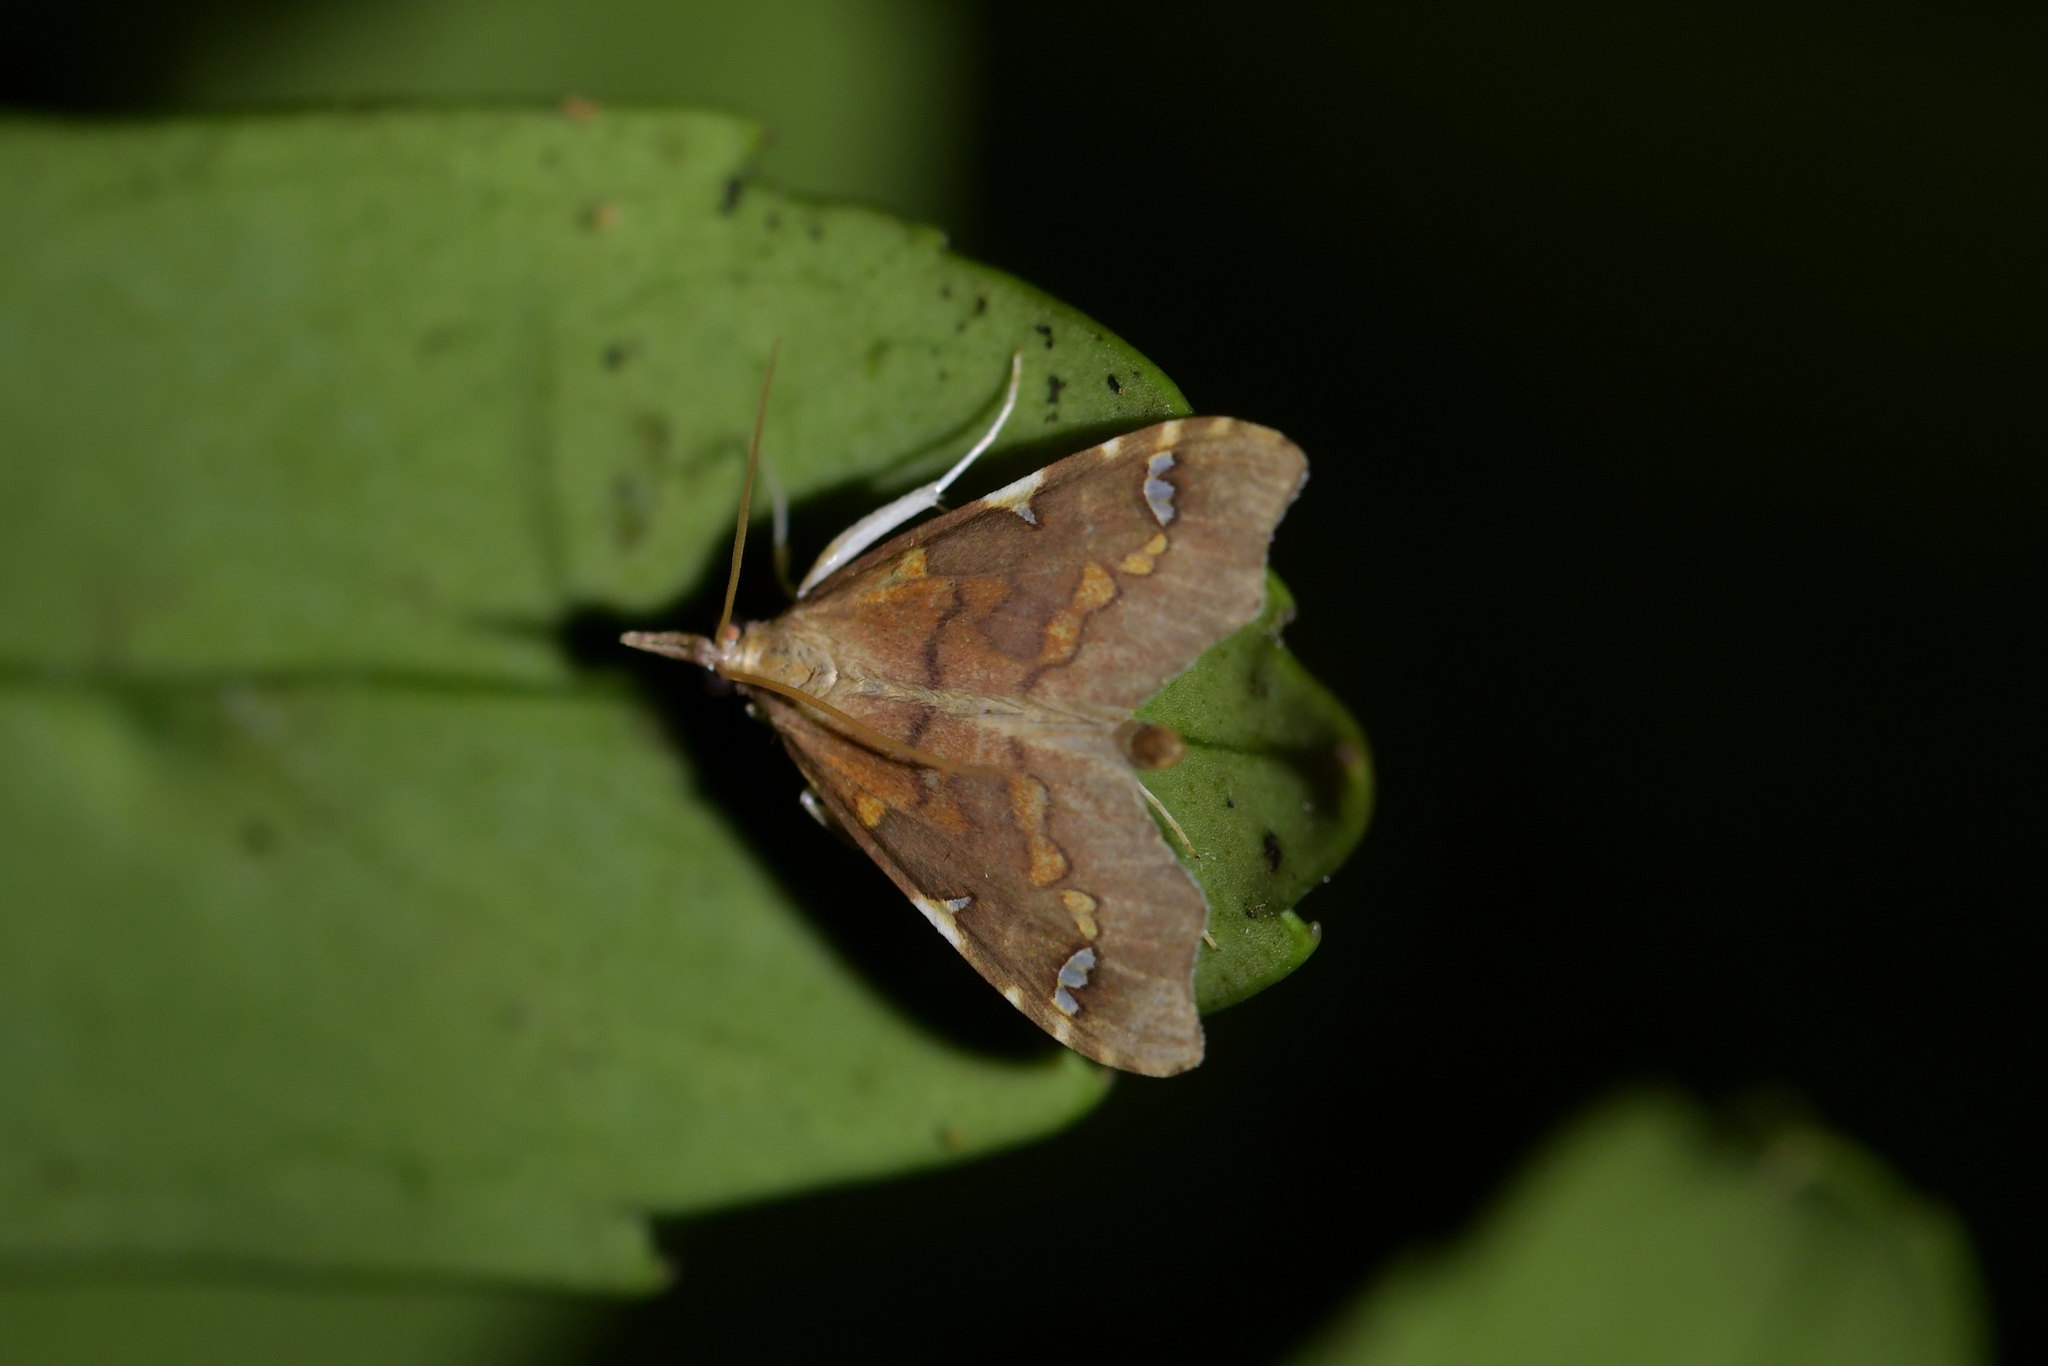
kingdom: Animalia
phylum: Arthropoda
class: Insecta
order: Lepidoptera
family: Crambidae
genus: Deana
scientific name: Deana hybreasalis
